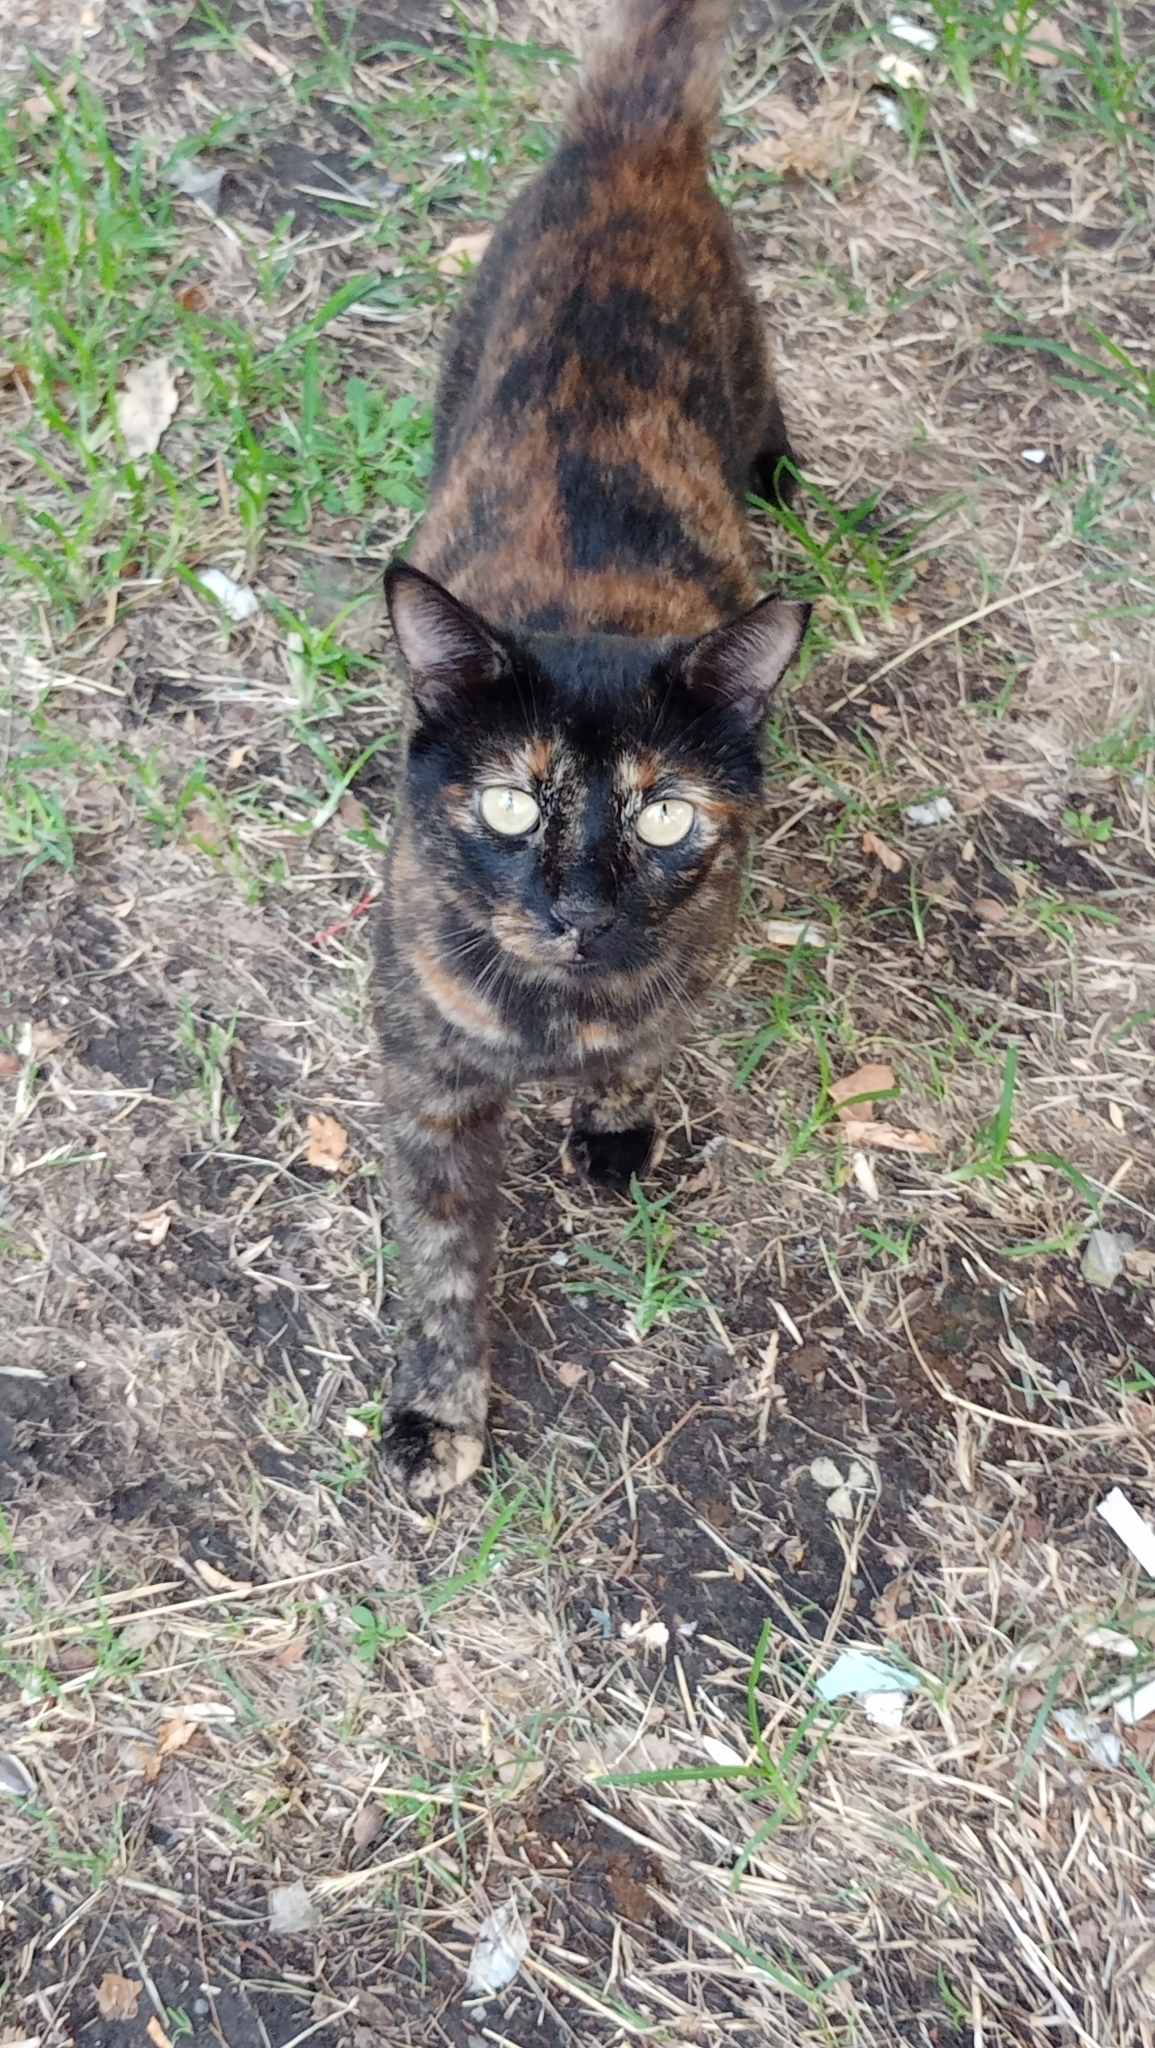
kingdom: Animalia
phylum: Chordata
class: Mammalia
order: Carnivora
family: Felidae
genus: Felis
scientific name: Felis catus
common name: Domestic cat
